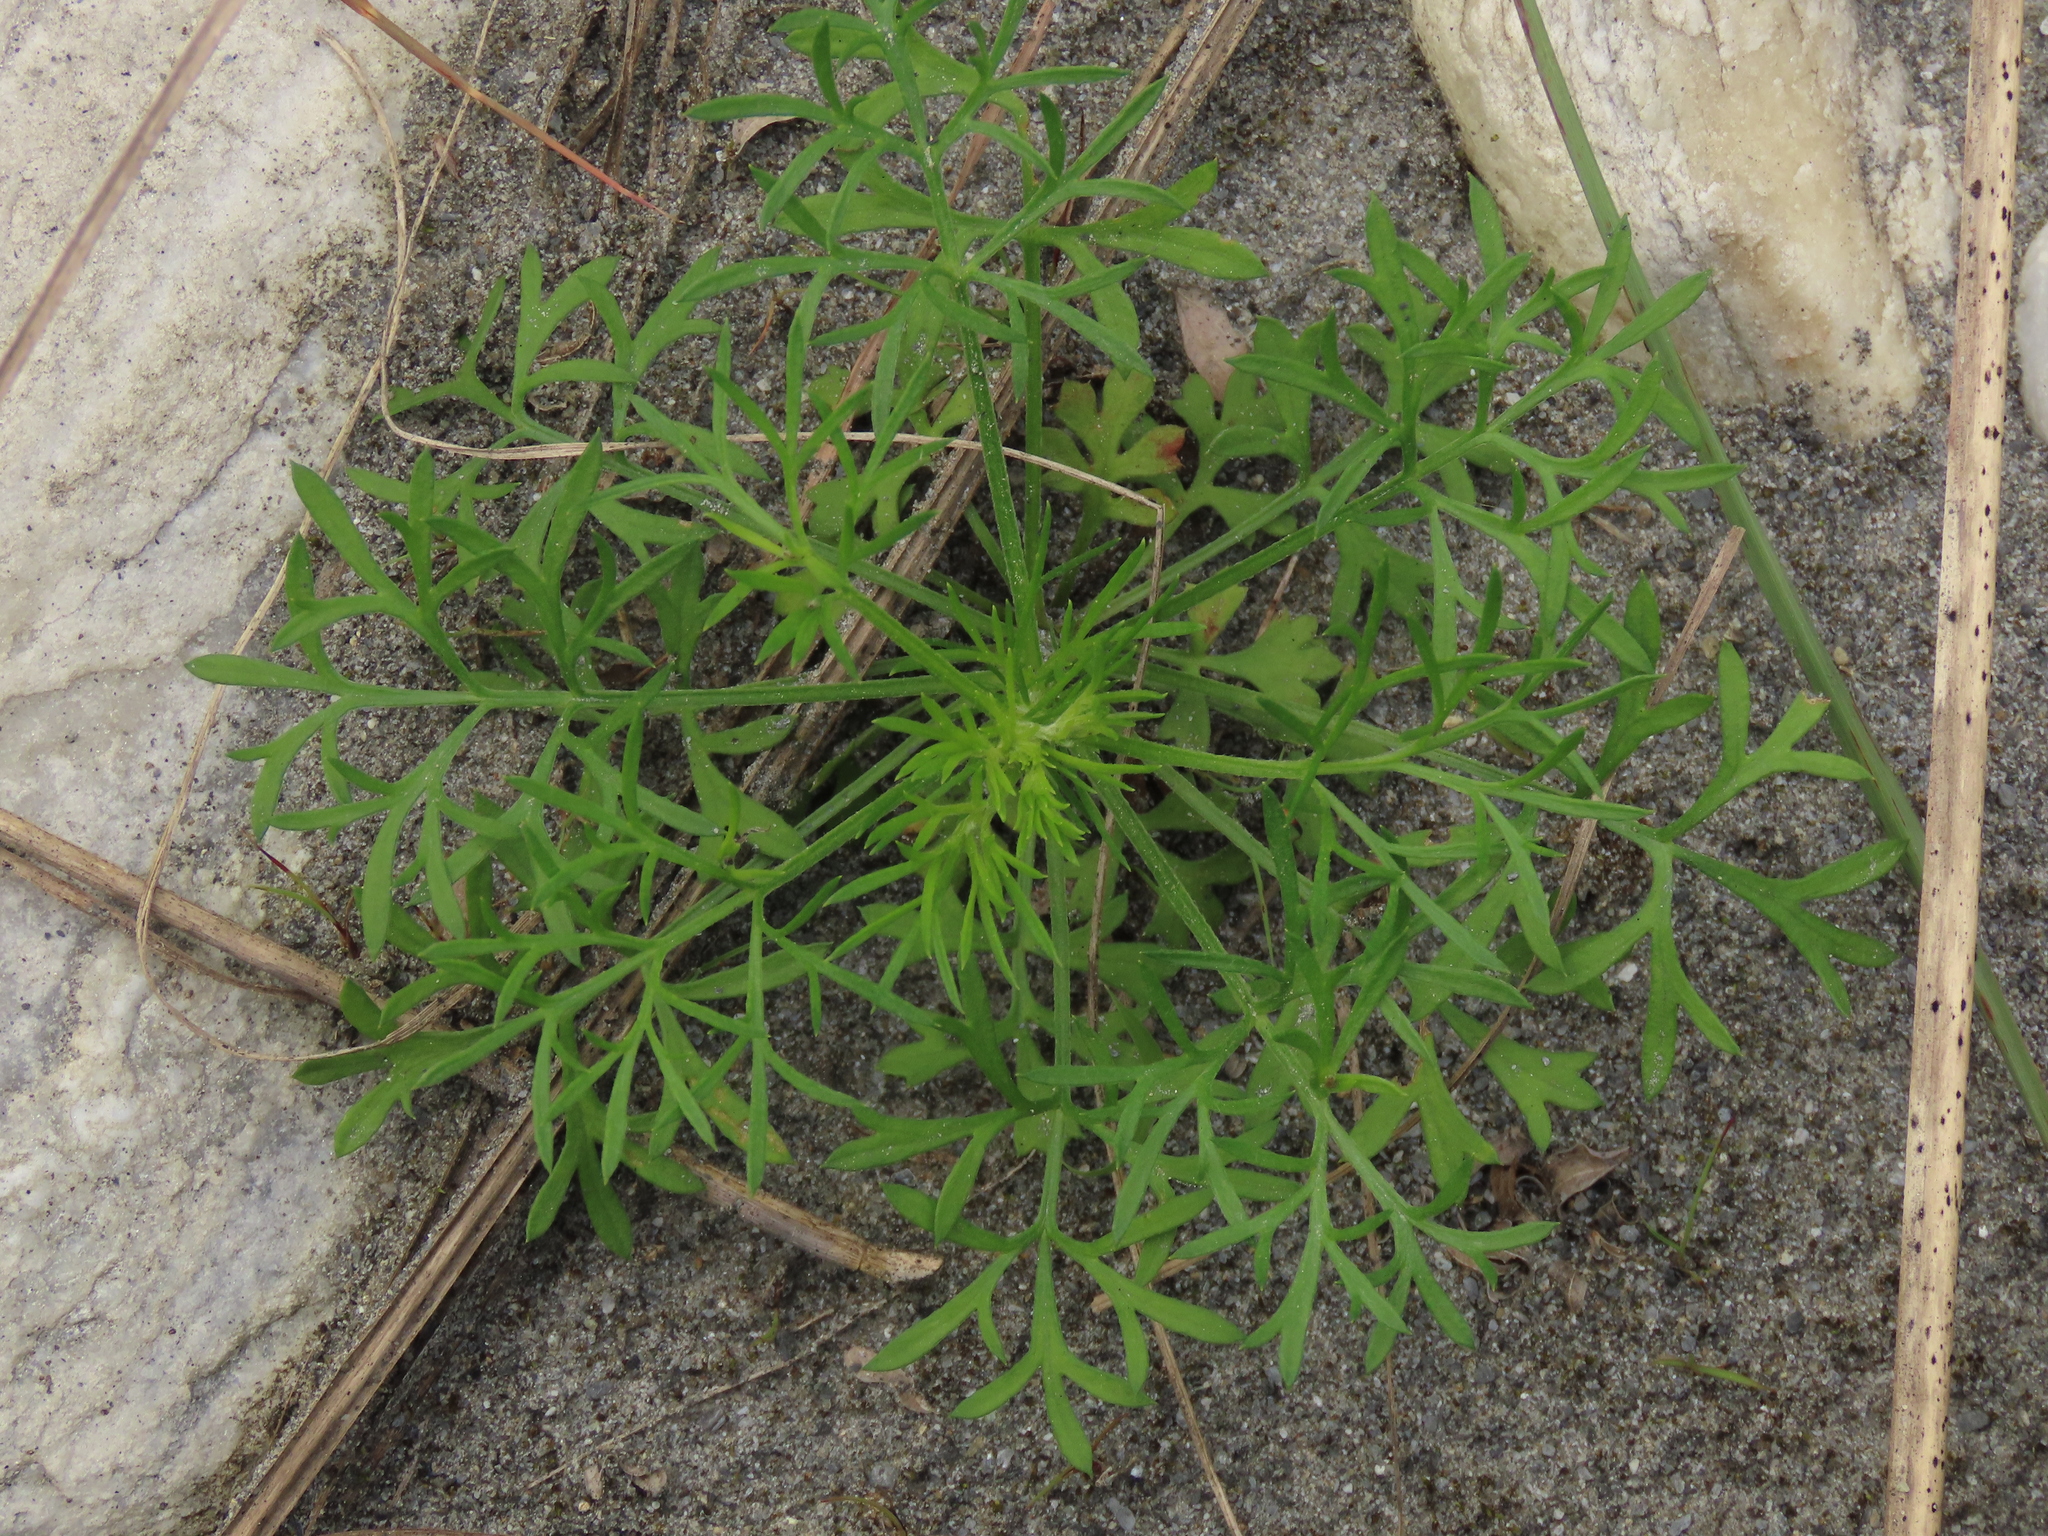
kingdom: Plantae
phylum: Tracheophyta
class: Magnoliopsida
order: Asterales
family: Asteraceae
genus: Artemisia
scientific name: Artemisia capillaris
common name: Yin-chen wormwood
